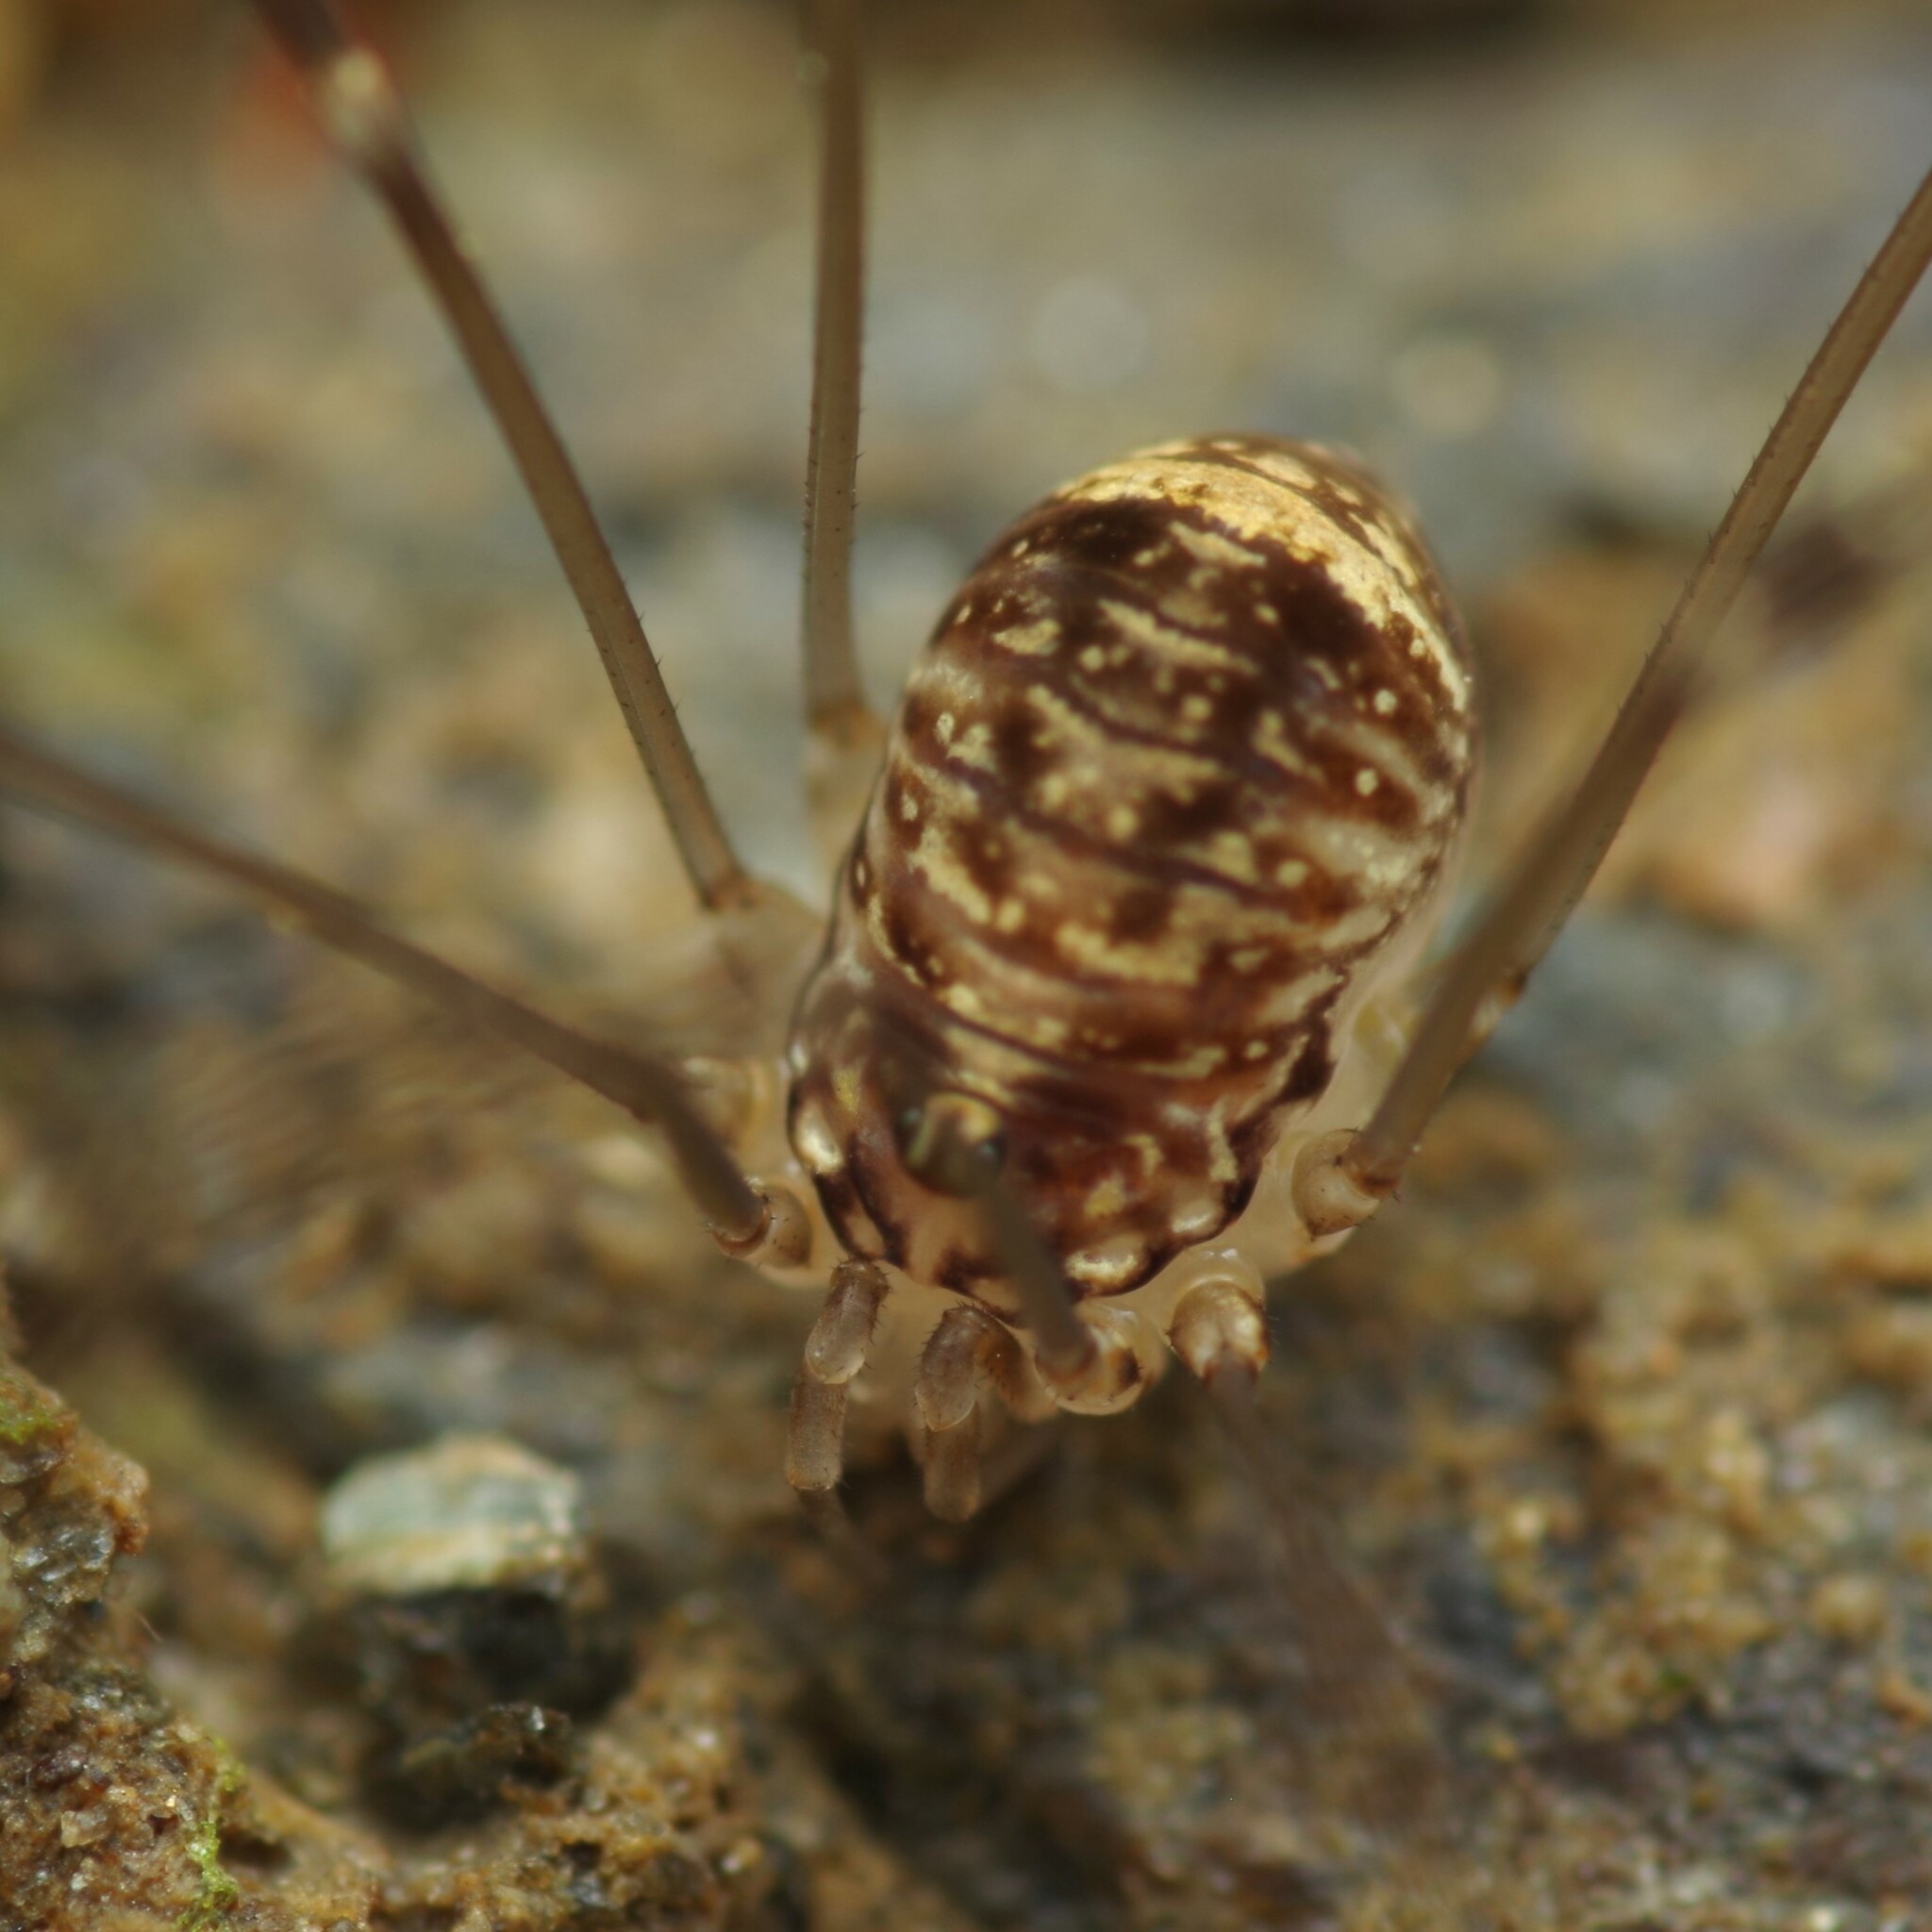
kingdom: Animalia
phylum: Arthropoda
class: Arachnida
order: Opiliones
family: Sclerosomatidae
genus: Leiobunum
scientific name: Leiobunum blackwalli
